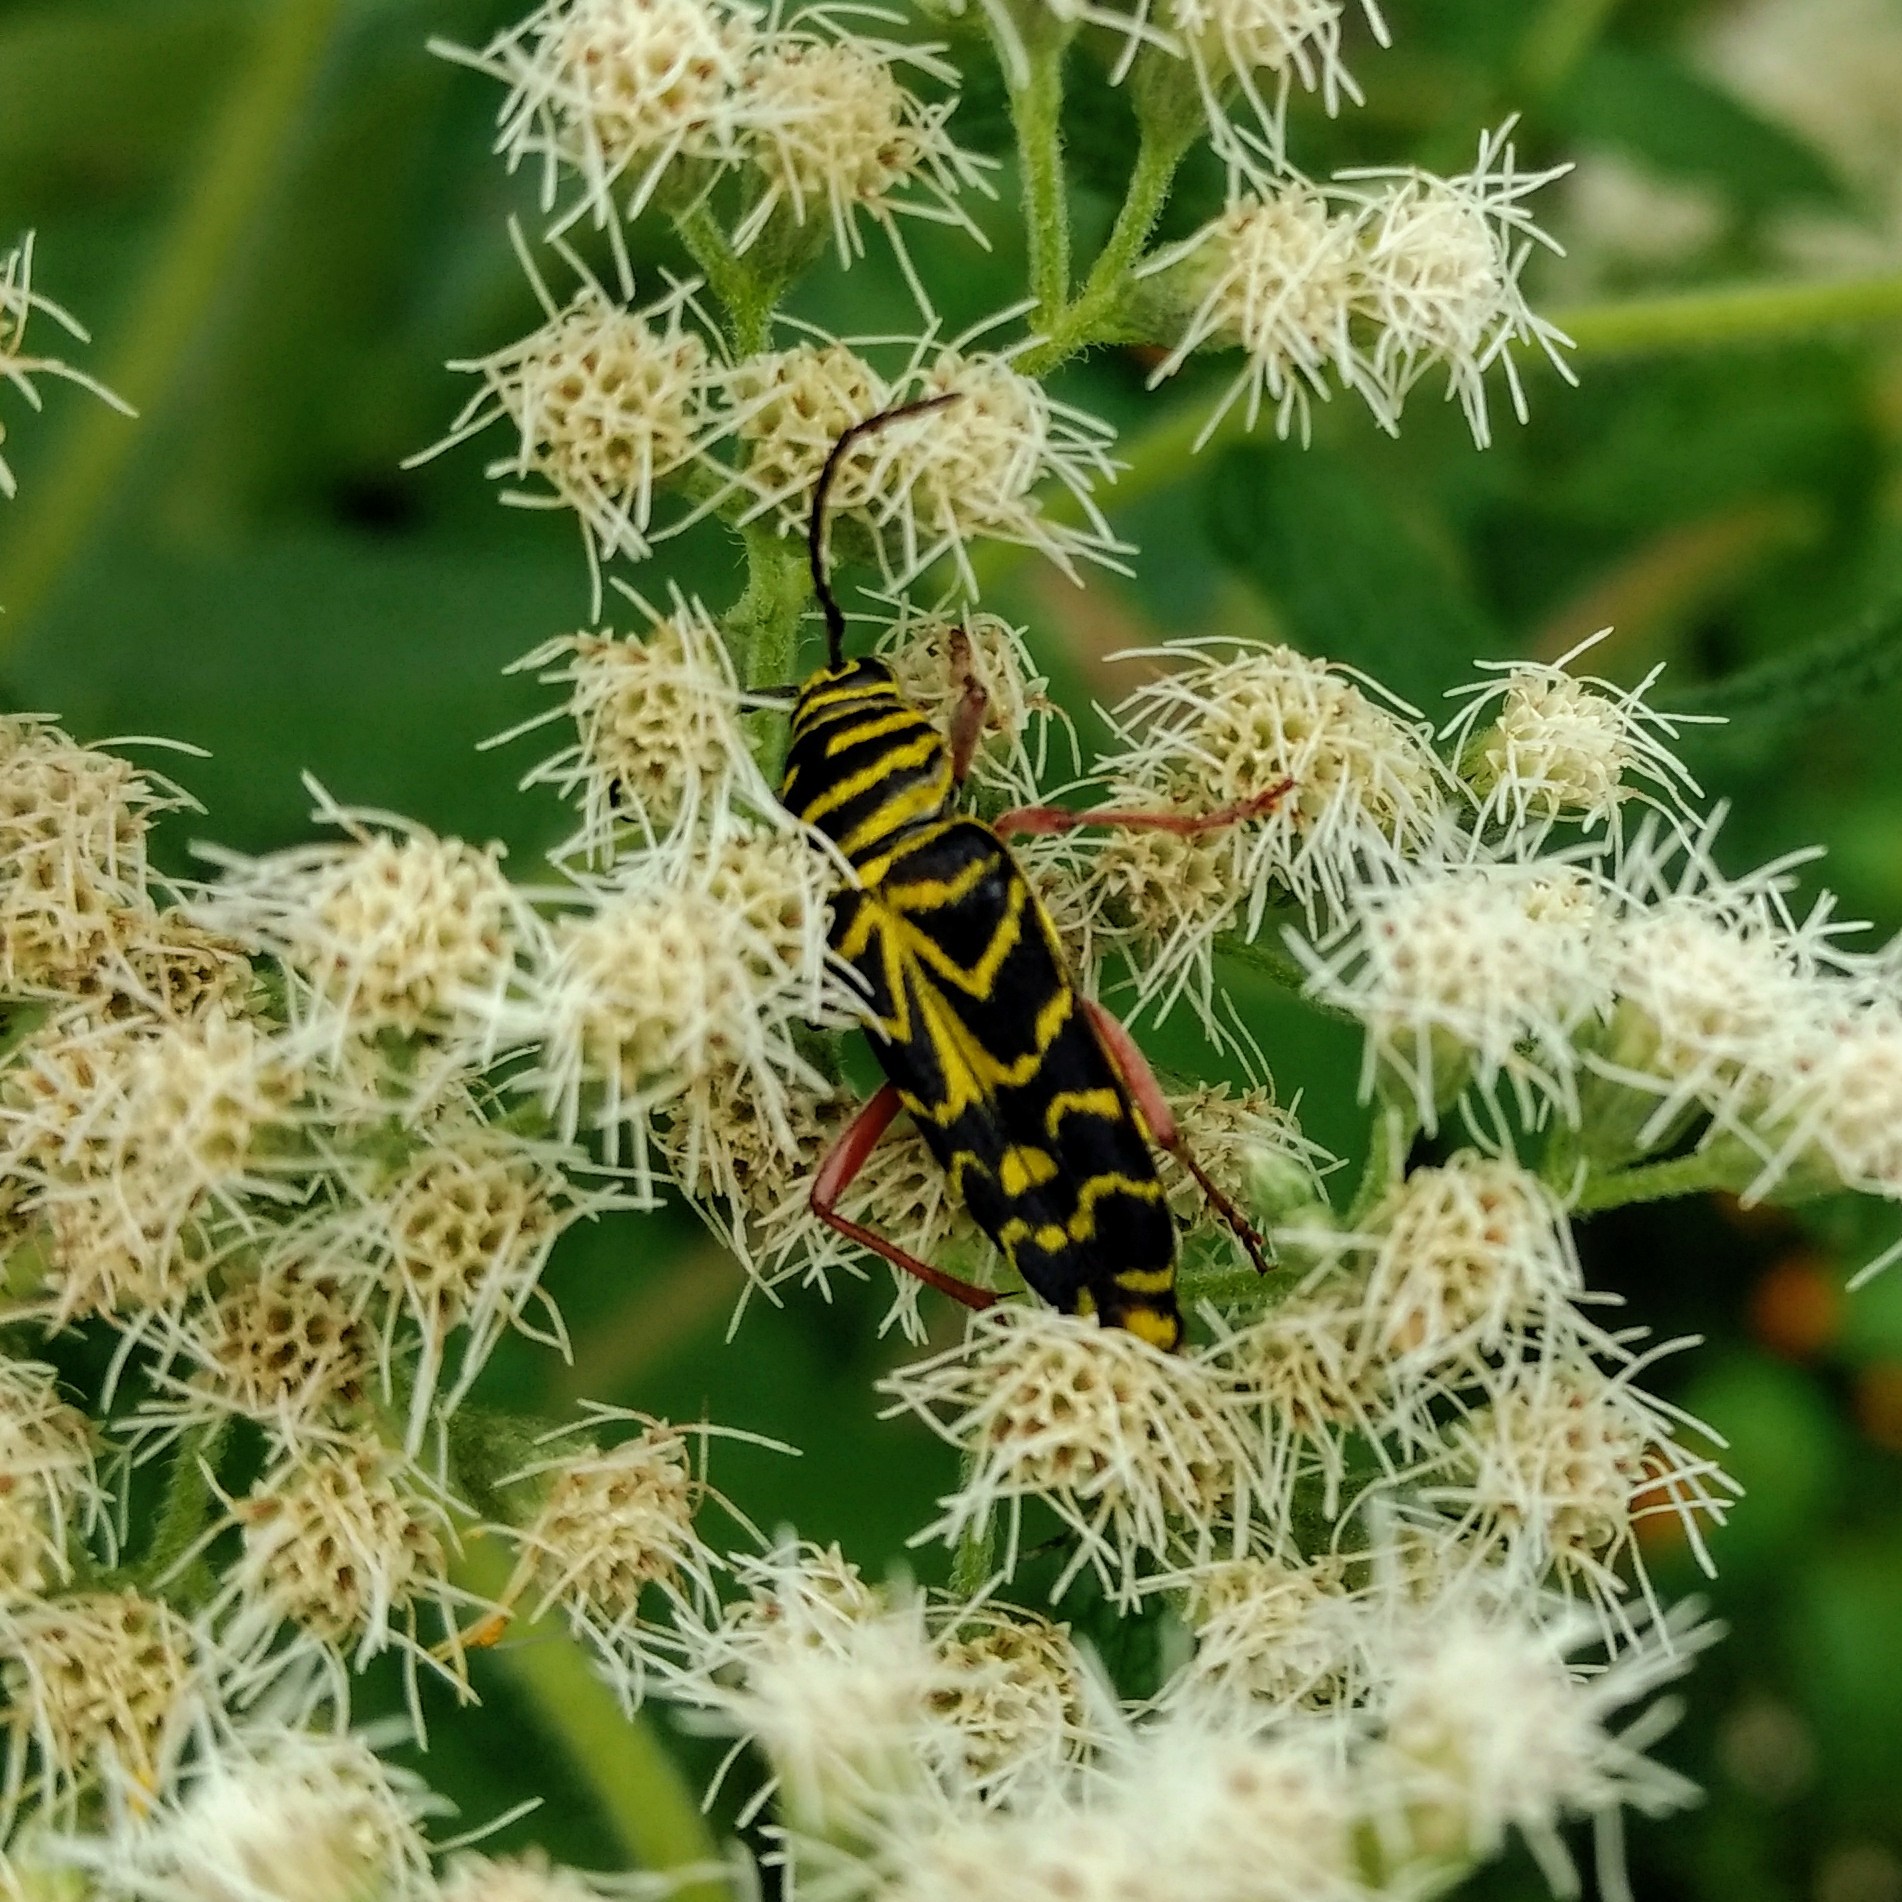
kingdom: Animalia
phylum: Arthropoda
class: Insecta
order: Coleoptera
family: Cerambycidae
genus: Megacyllene
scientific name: Megacyllene robiniae
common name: Locust borer
